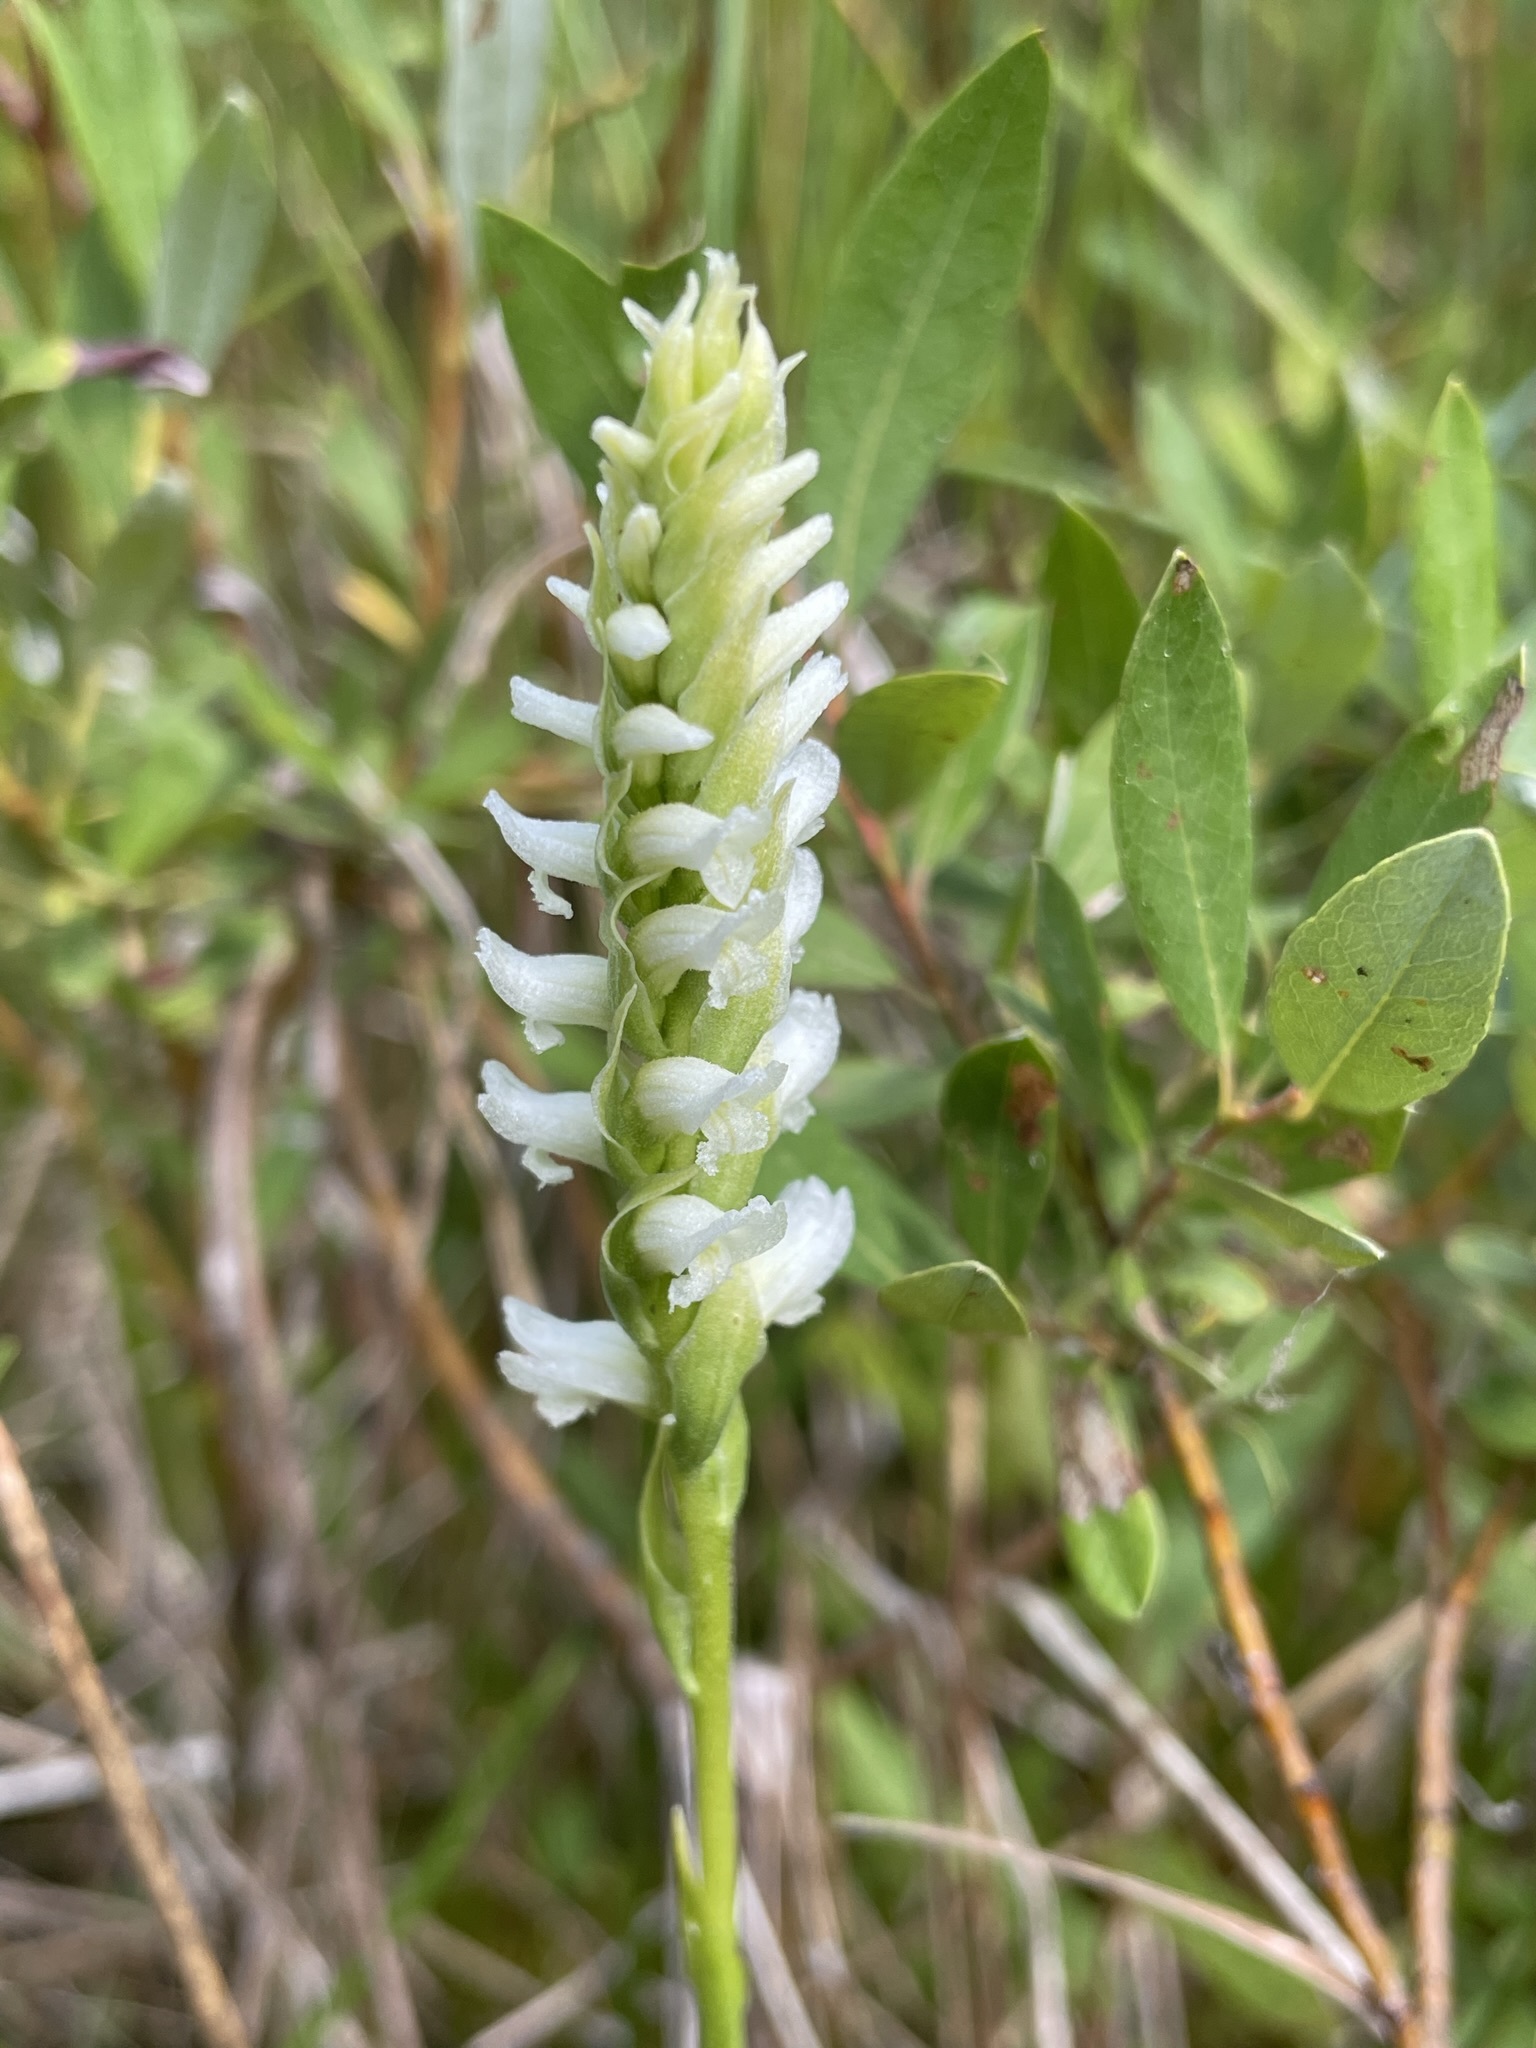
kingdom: Plantae
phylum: Tracheophyta
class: Liliopsida
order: Asparagales
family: Orchidaceae
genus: Spiranthes
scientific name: Spiranthes romanzoffiana
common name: Irish lady's-tresses
